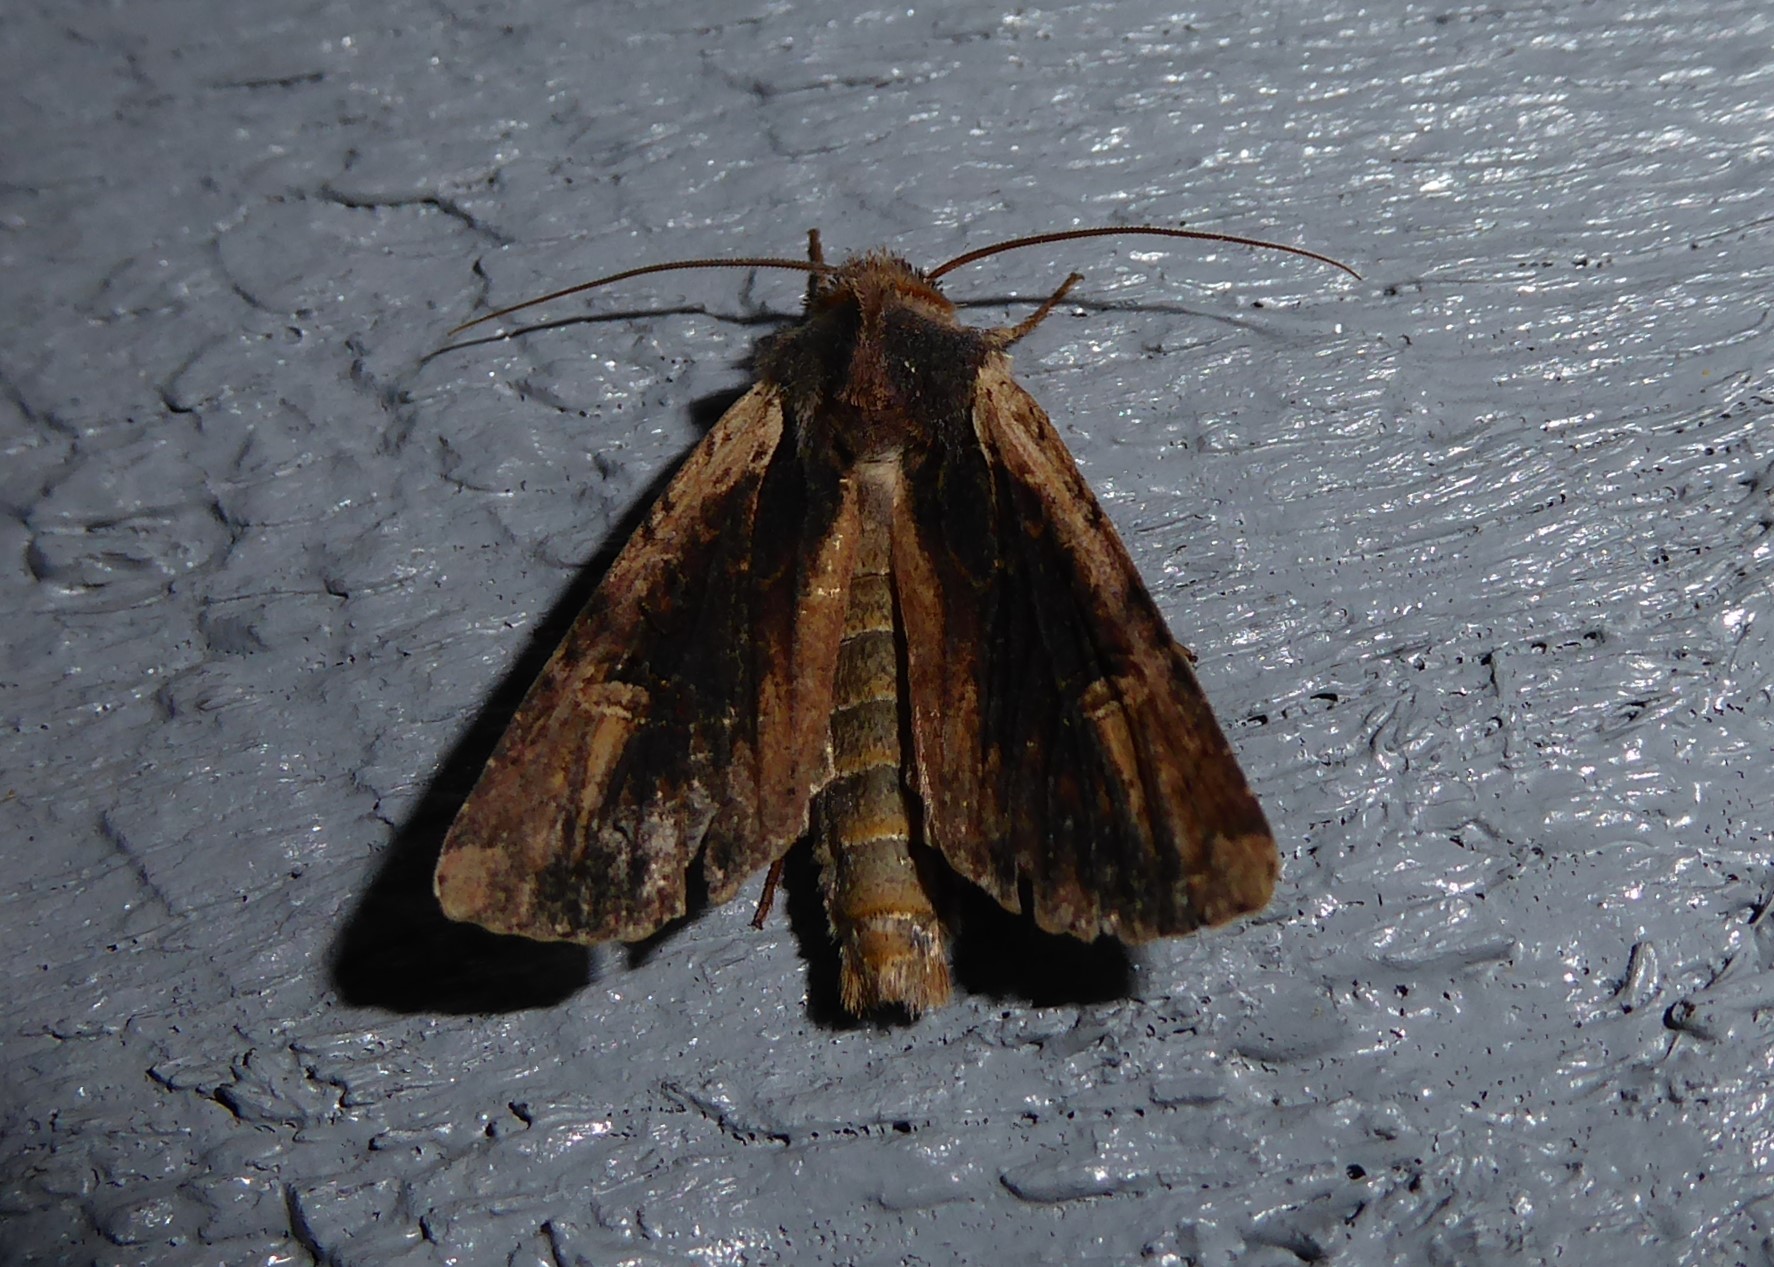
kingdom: Animalia
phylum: Arthropoda
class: Insecta
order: Lepidoptera
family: Noctuidae
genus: Ichneutica
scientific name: Ichneutica omoplaca
